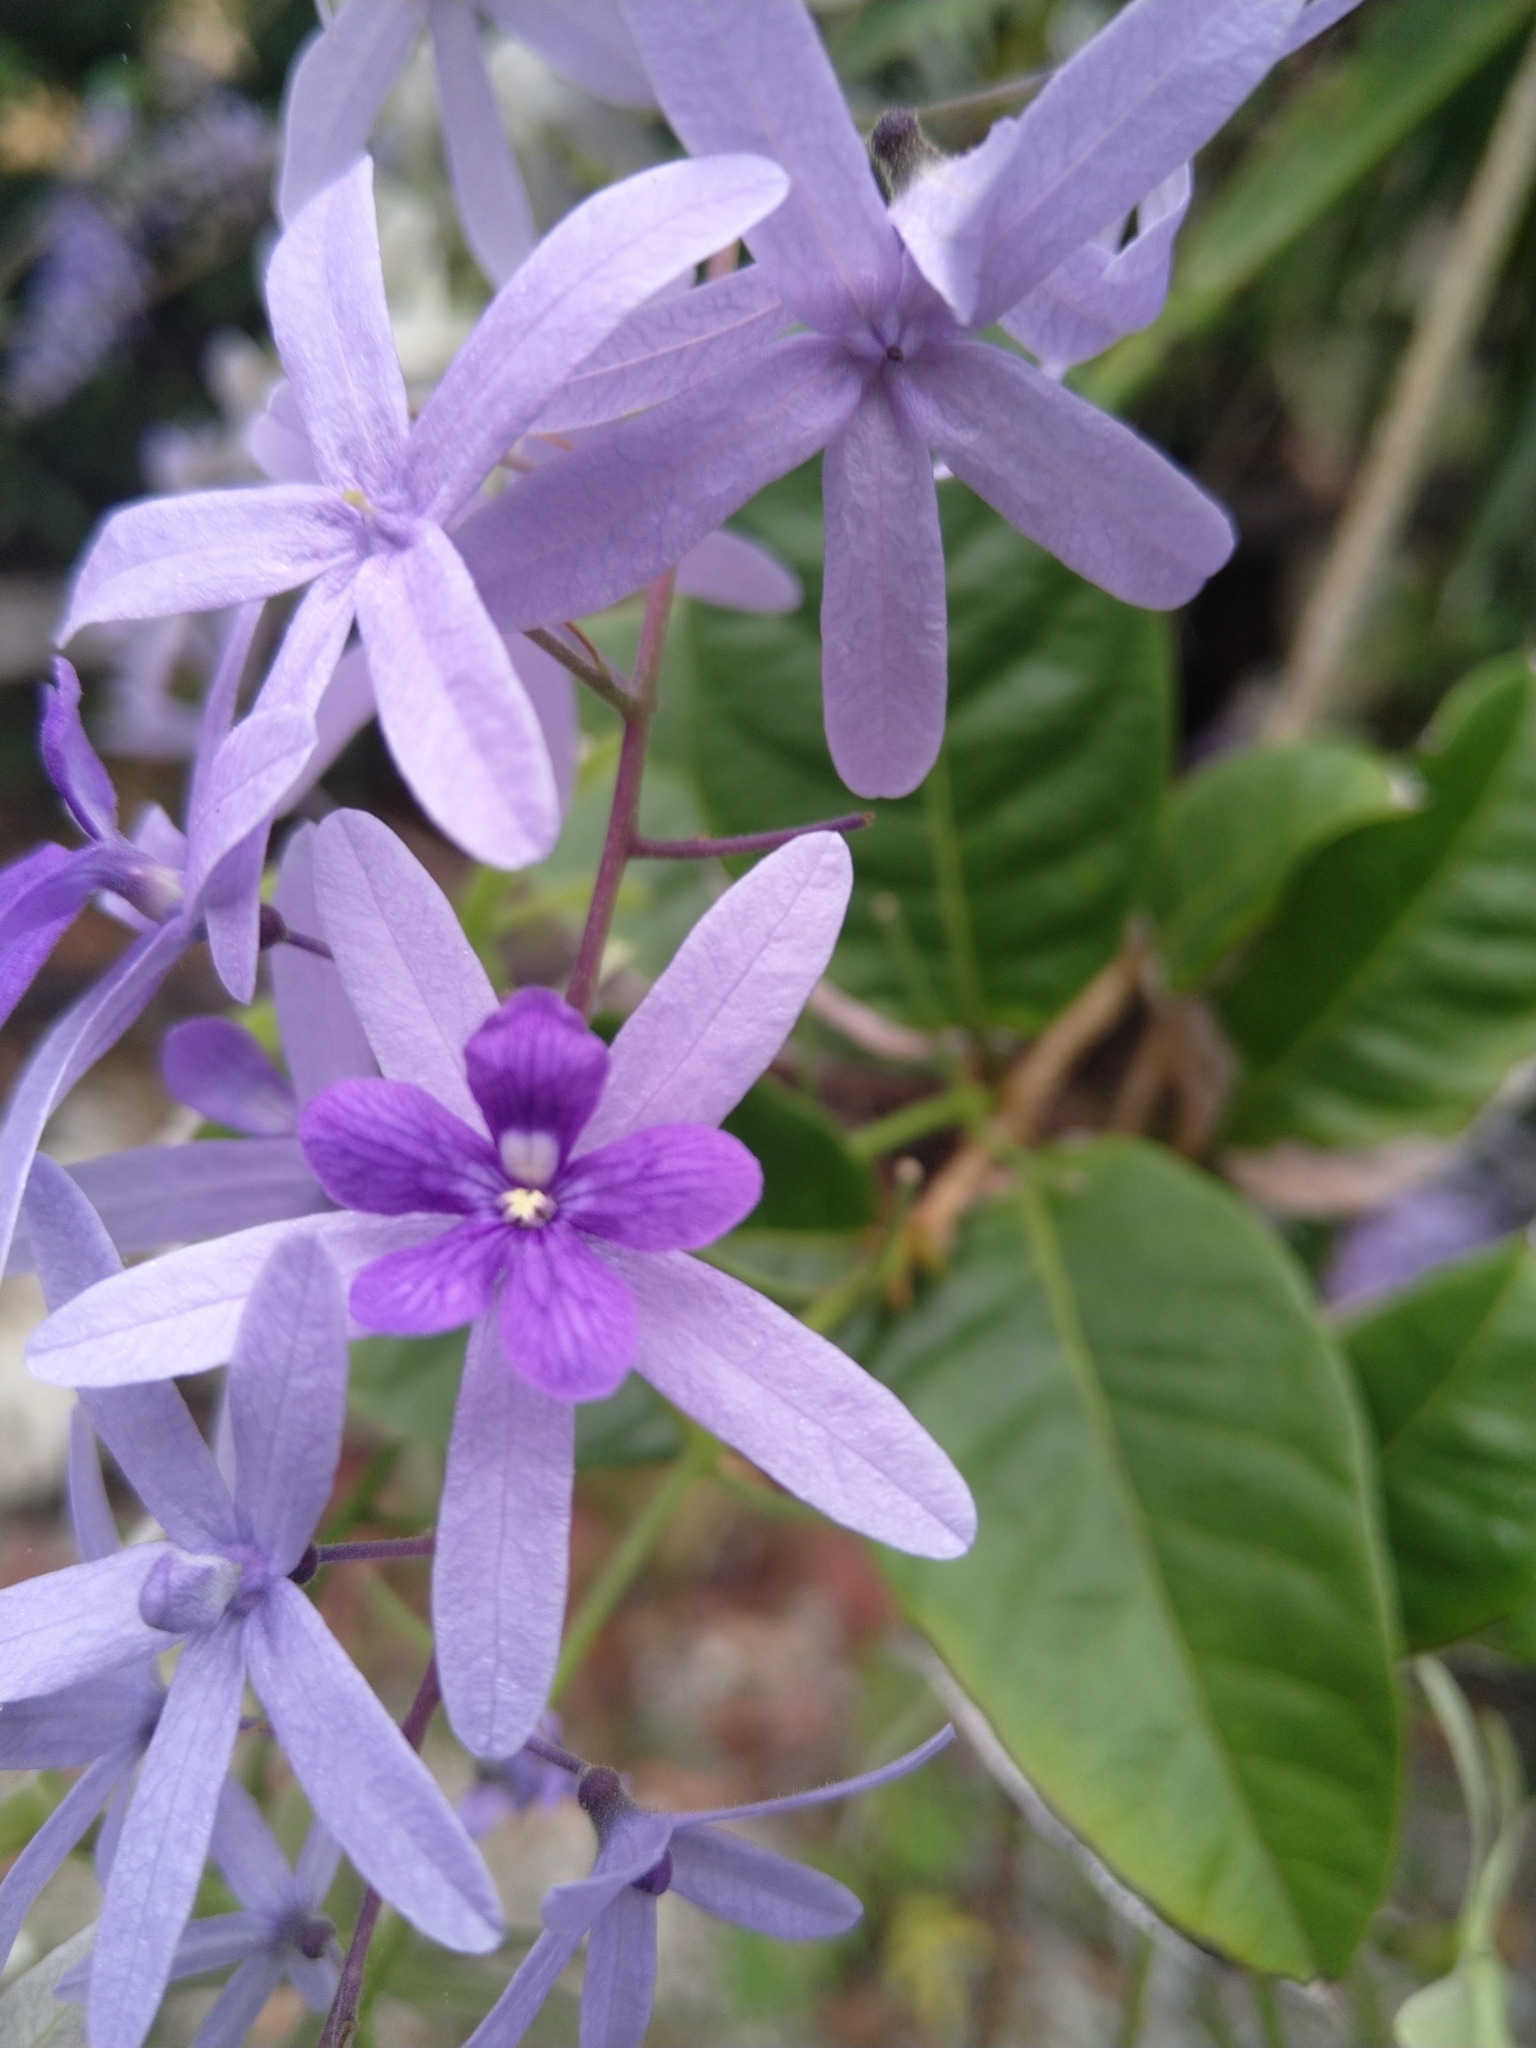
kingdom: Plantae
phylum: Tracheophyta
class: Magnoliopsida
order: Lamiales
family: Verbenaceae
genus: Petrea
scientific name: Petrea volubilis
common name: Queen's-wreath
